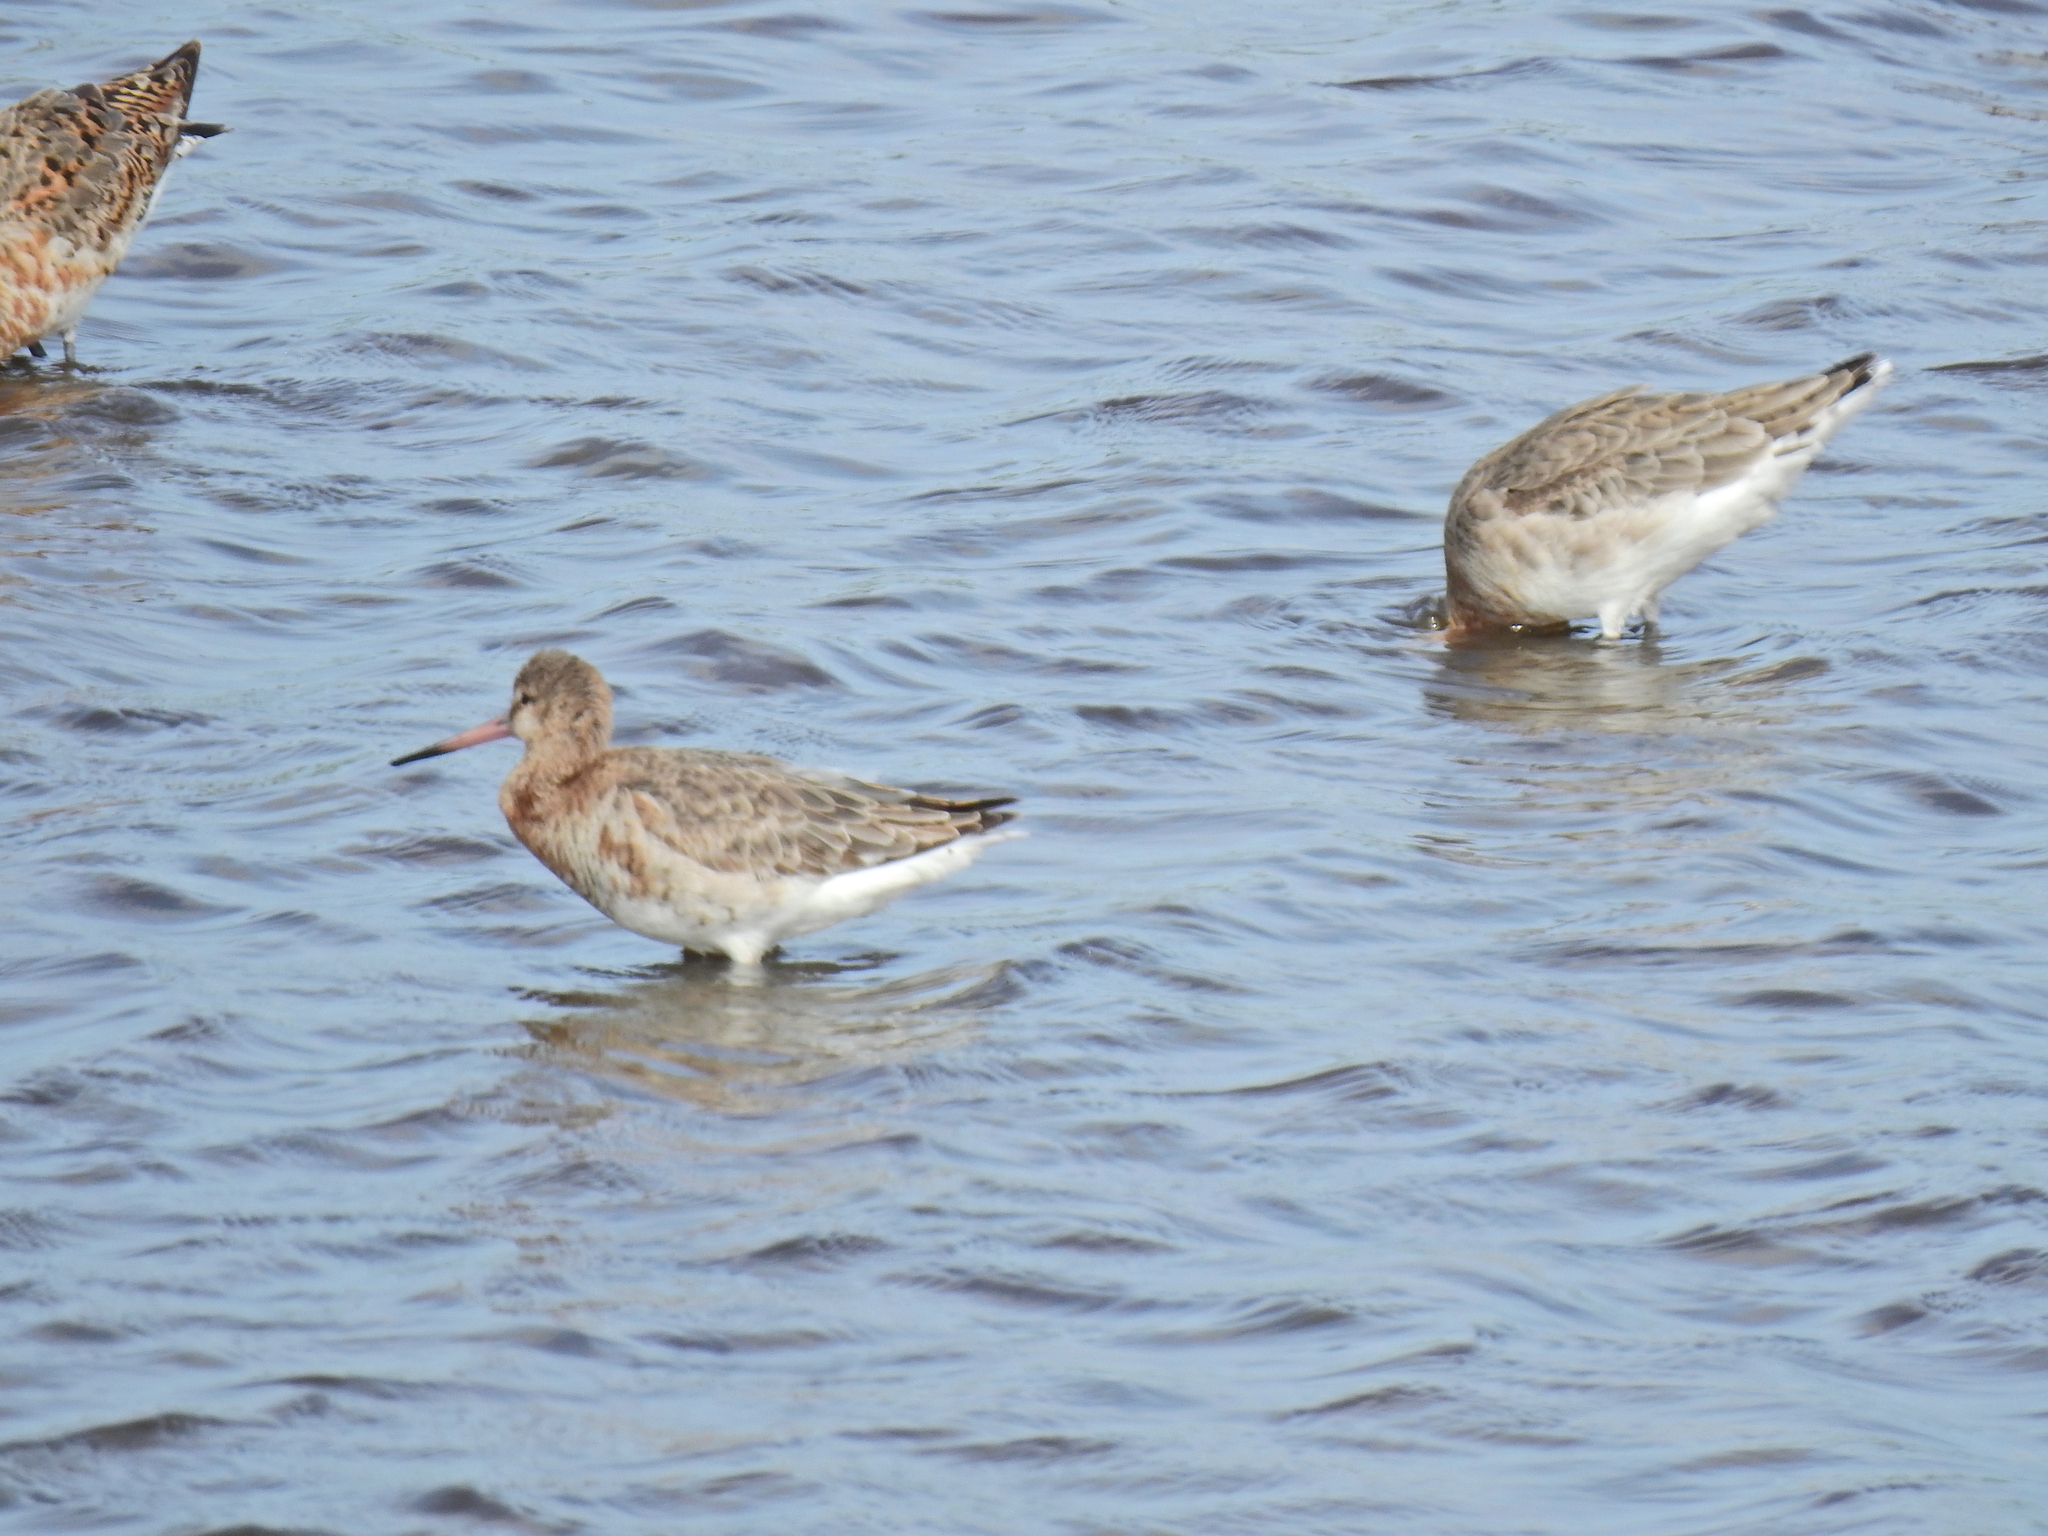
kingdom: Animalia
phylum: Chordata
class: Aves
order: Charadriiformes
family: Scolopacidae
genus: Limosa
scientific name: Limosa limosa
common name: Black-tailed godwit
